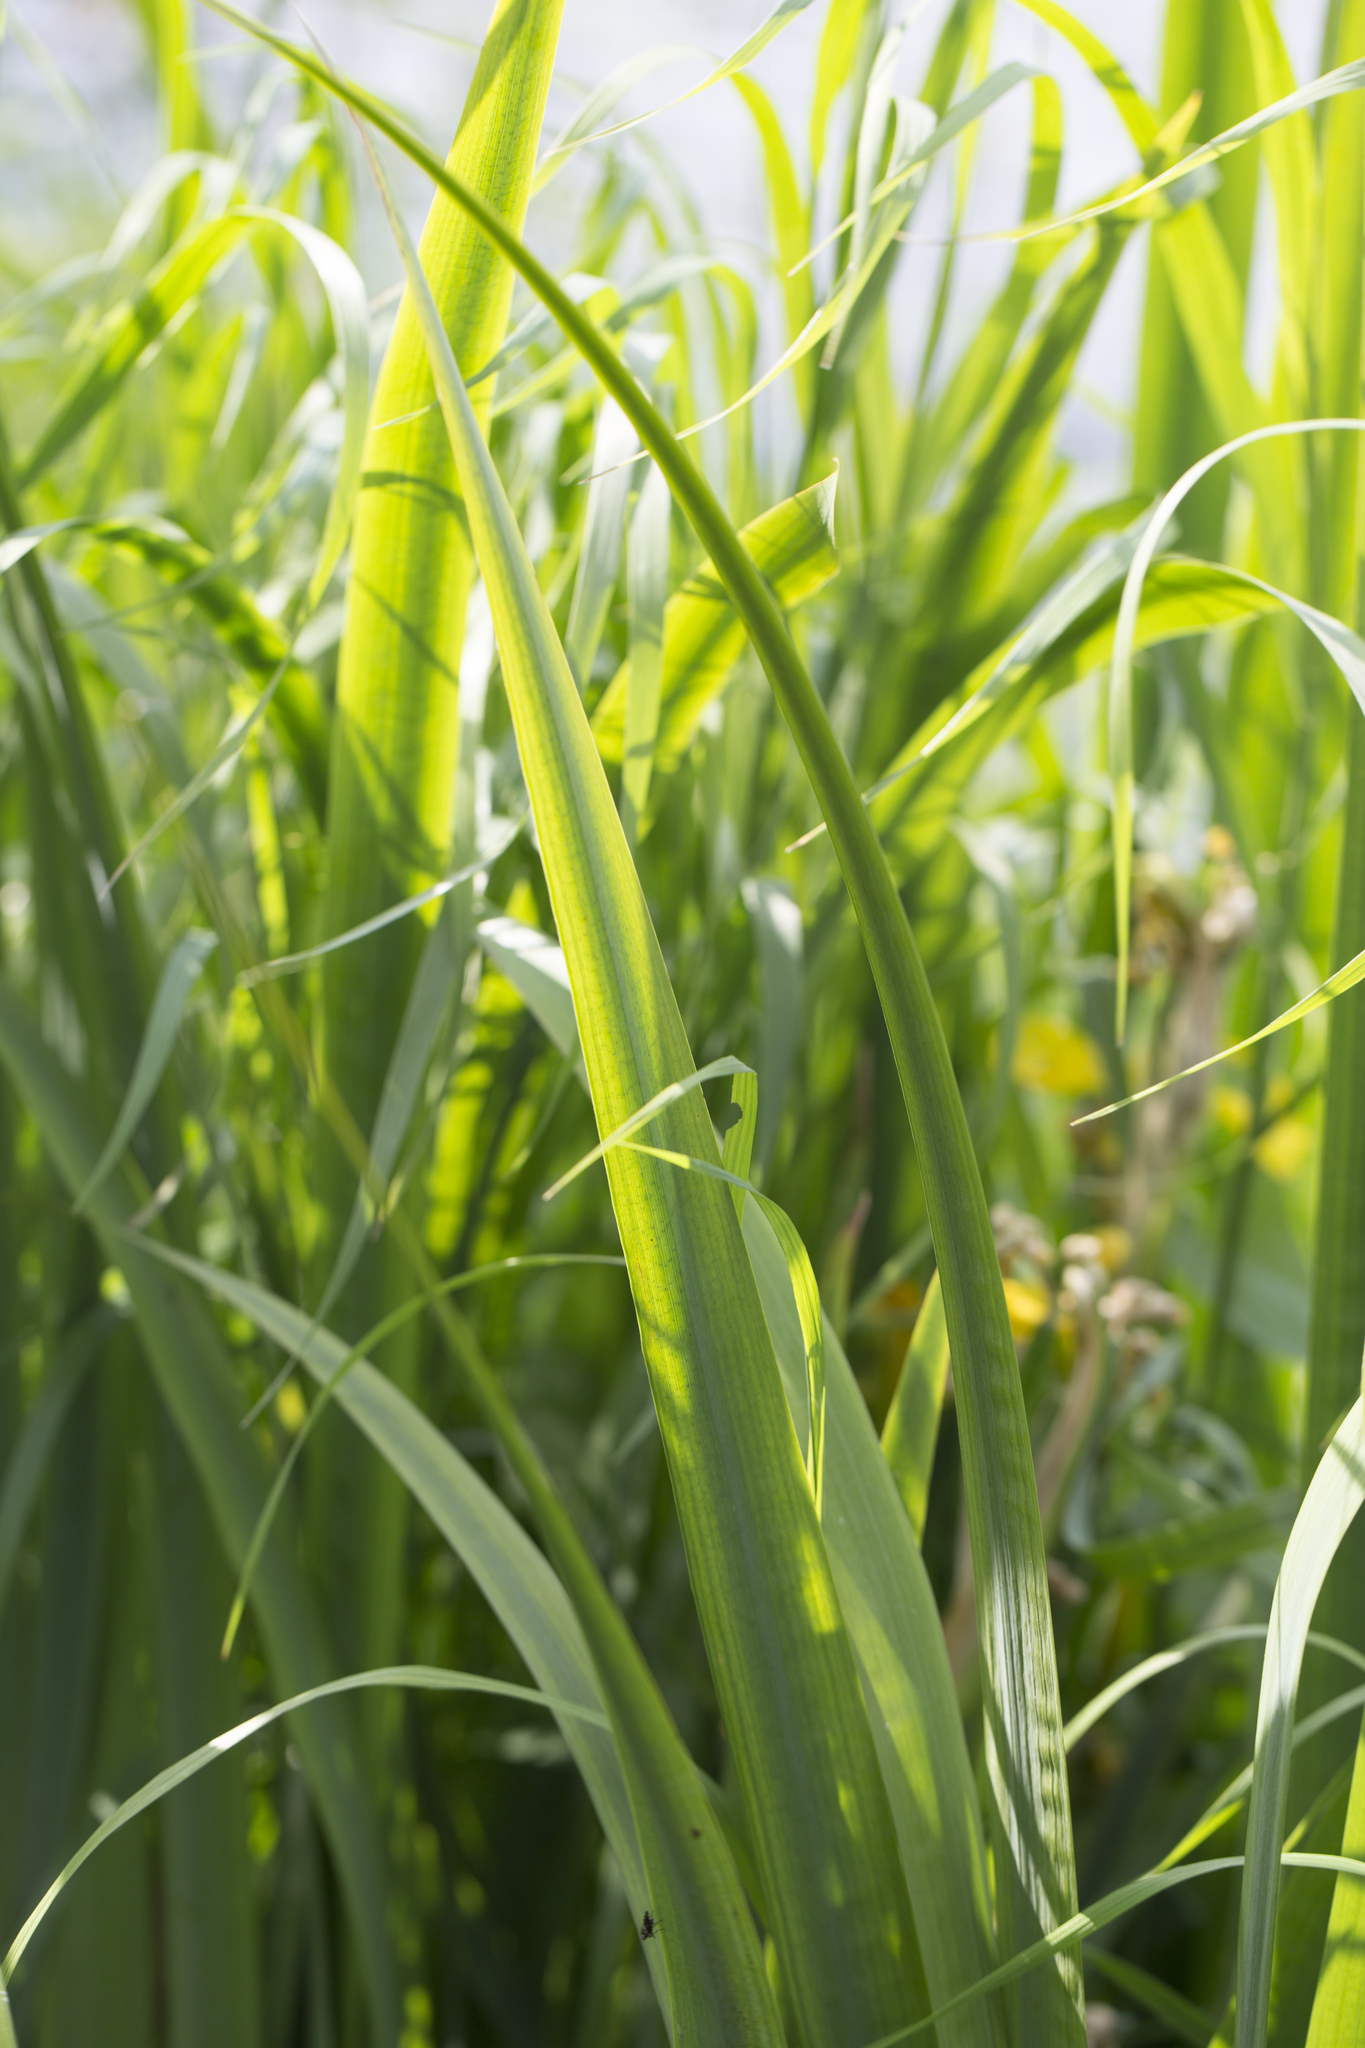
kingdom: Plantae
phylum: Tracheophyta
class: Liliopsida
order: Asparagales
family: Iridaceae
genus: Iris
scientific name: Iris pseudacorus
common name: Yellow flag
